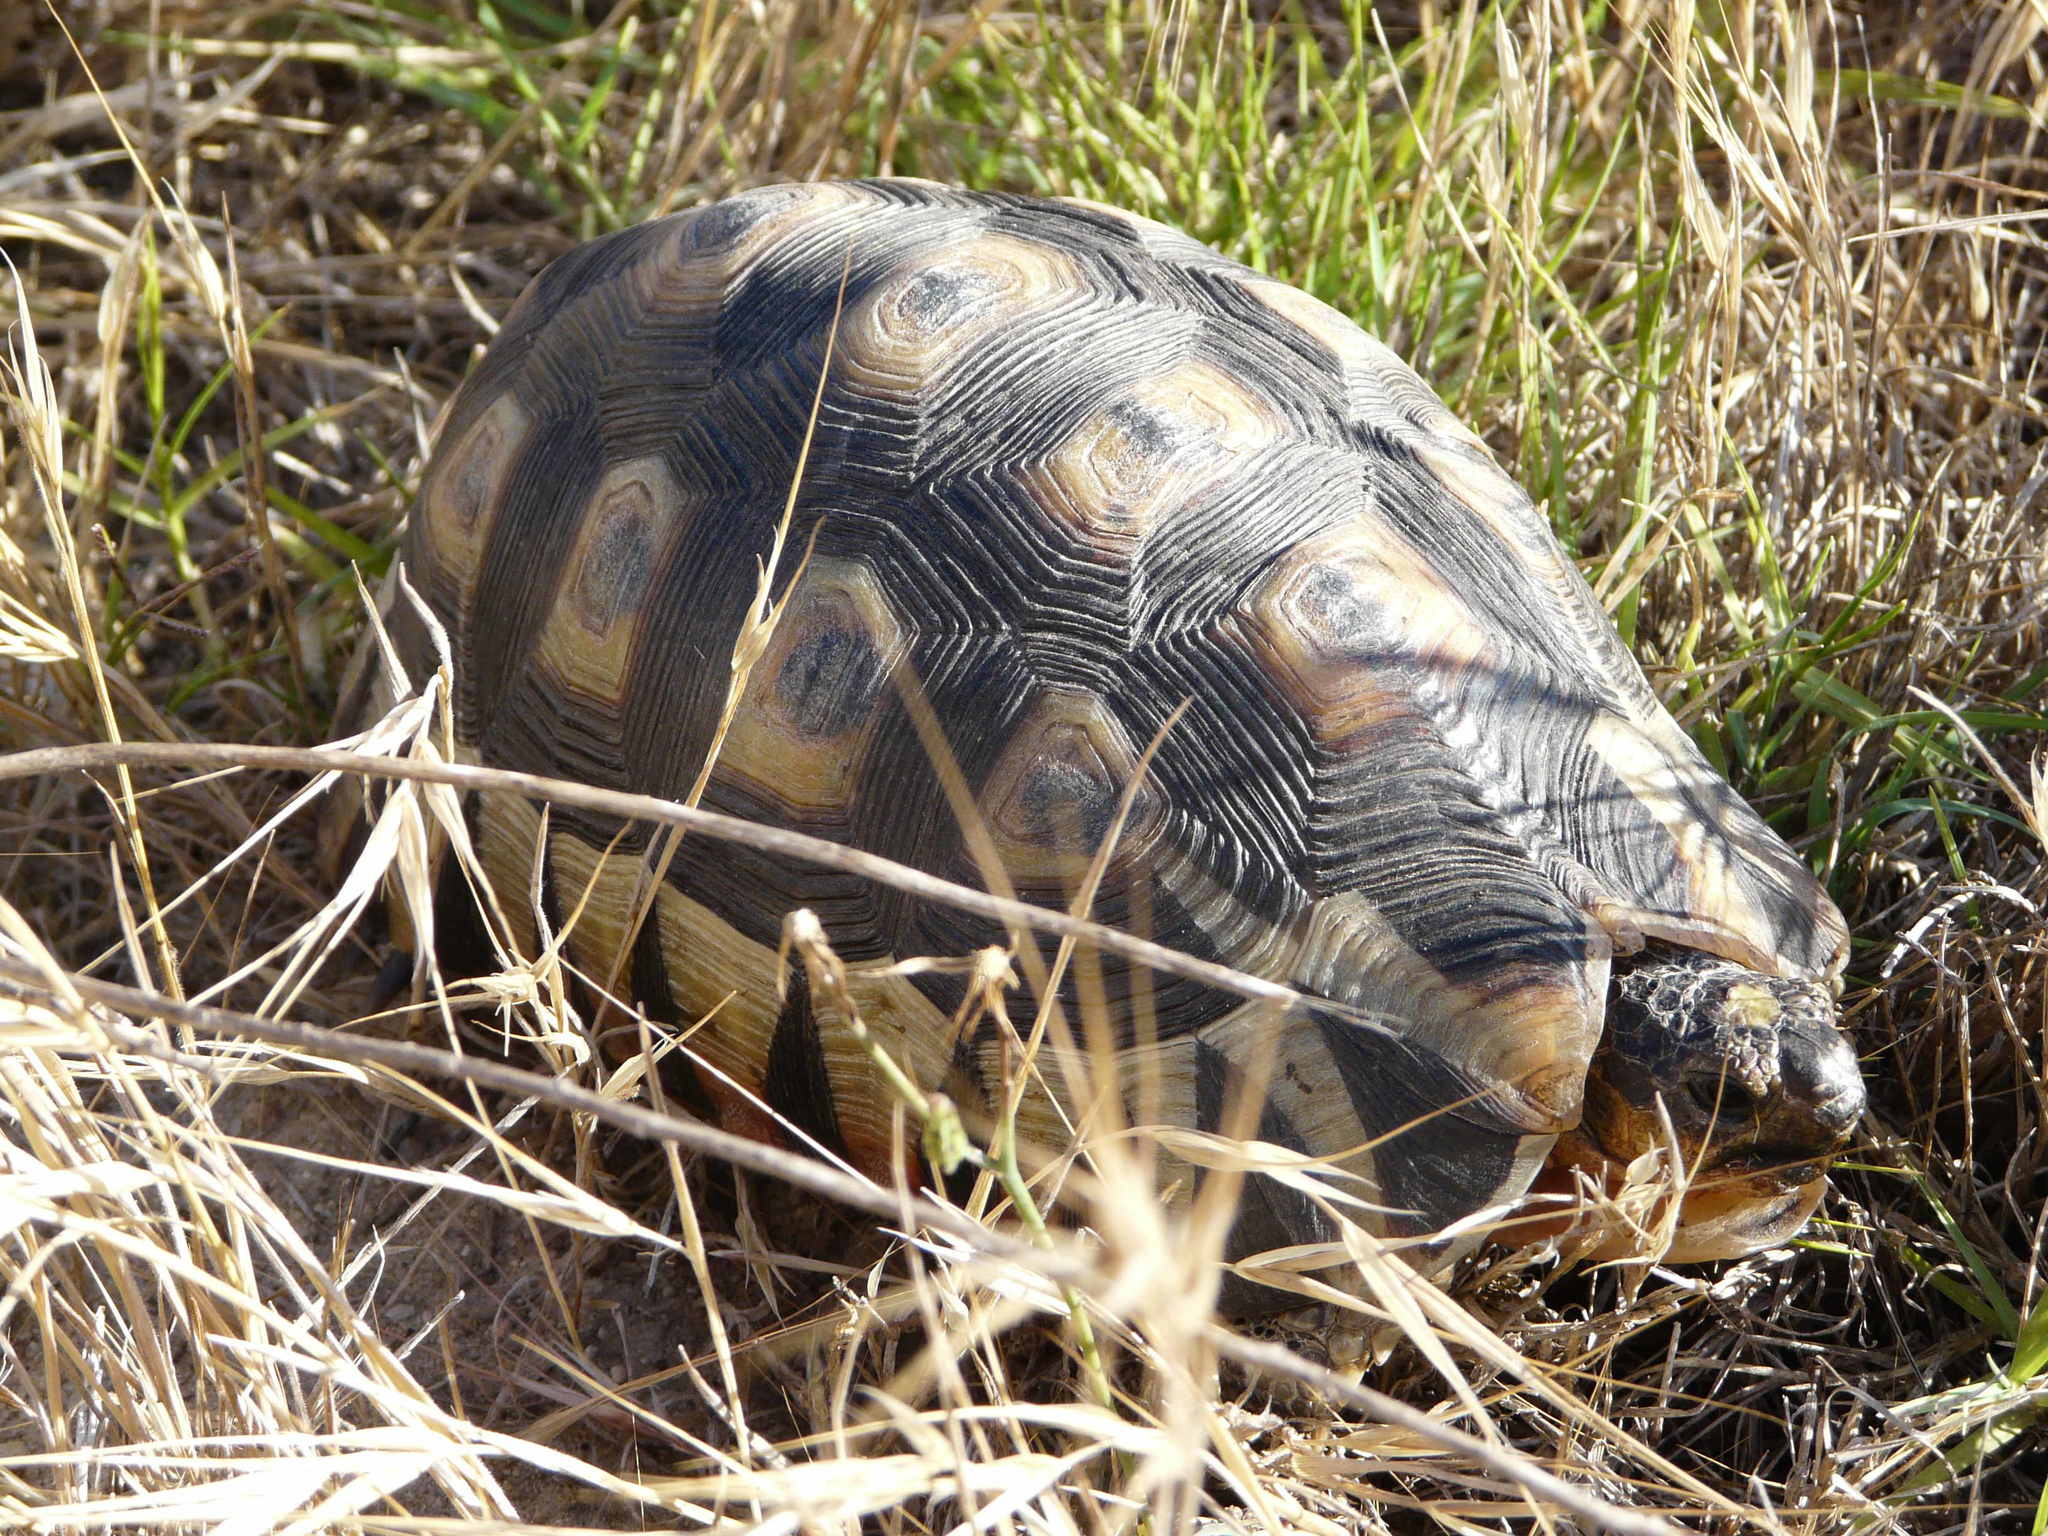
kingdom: Animalia
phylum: Chordata
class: Testudines
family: Testudinidae
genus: Chersina
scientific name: Chersina angulata
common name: South african bowsprit tortoise
